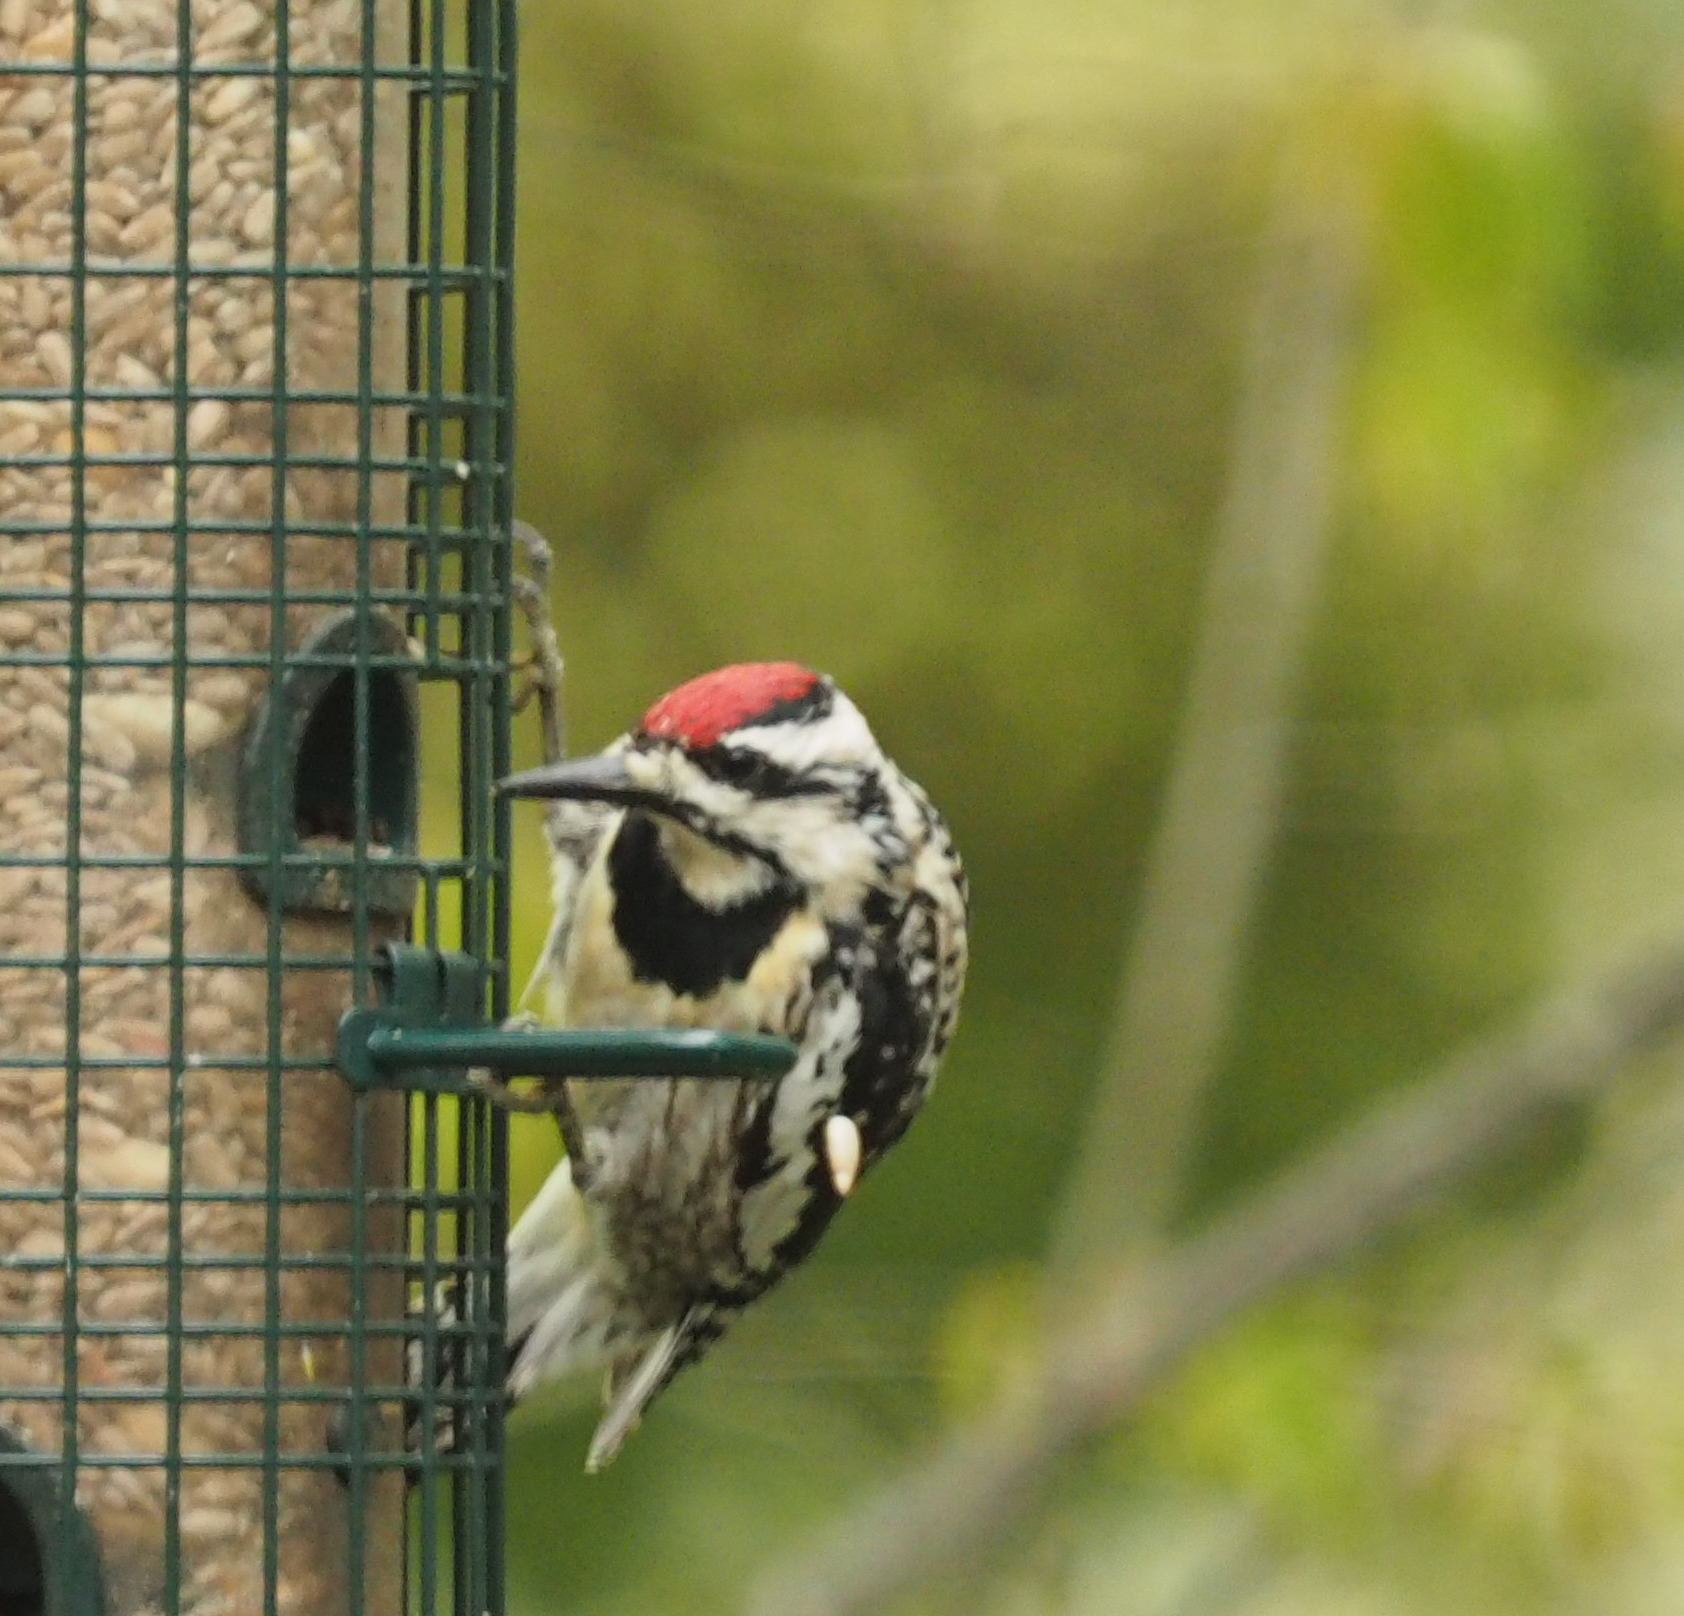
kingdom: Animalia
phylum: Chordata
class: Aves
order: Piciformes
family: Picidae
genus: Sphyrapicus
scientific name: Sphyrapicus varius
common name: Yellow-bellied sapsucker
